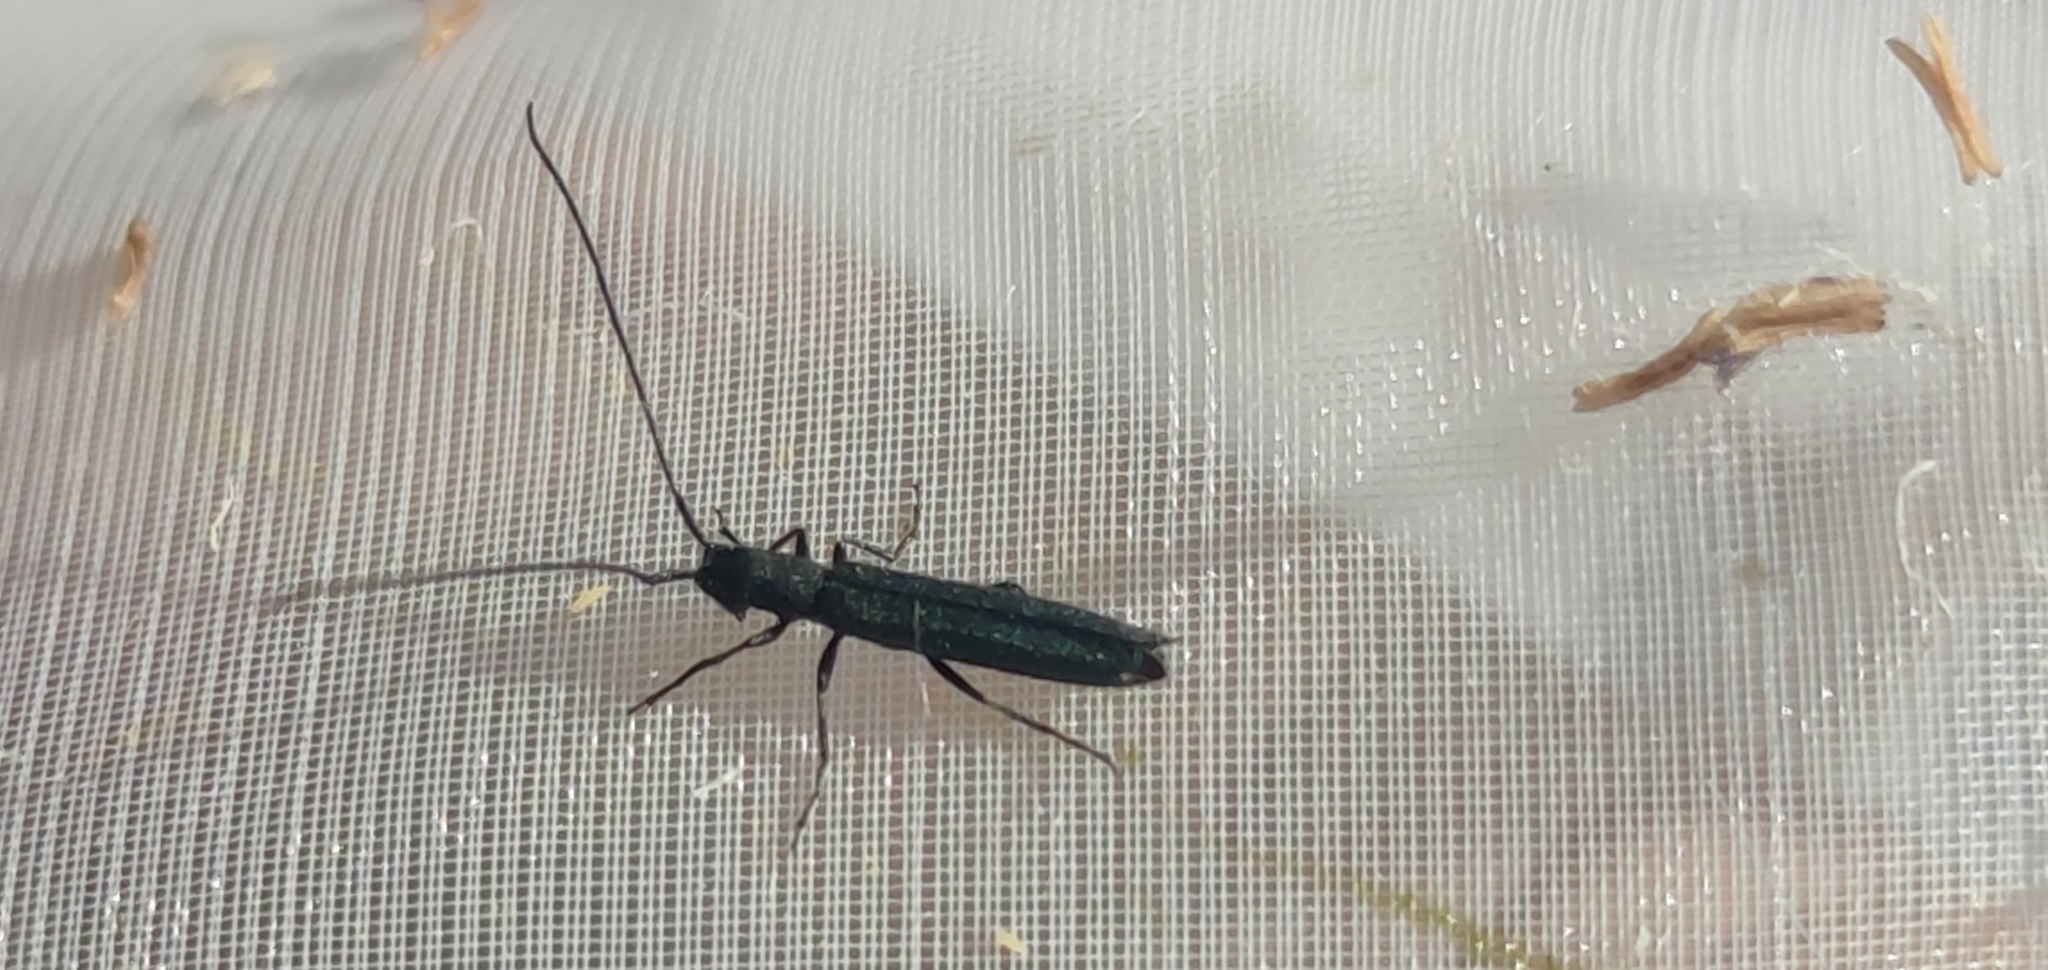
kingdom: Animalia
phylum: Arthropoda
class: Insecta
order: Coleoptera
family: Cerambycidae
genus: Theophilea
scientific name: Theophilea subcylindricollis
